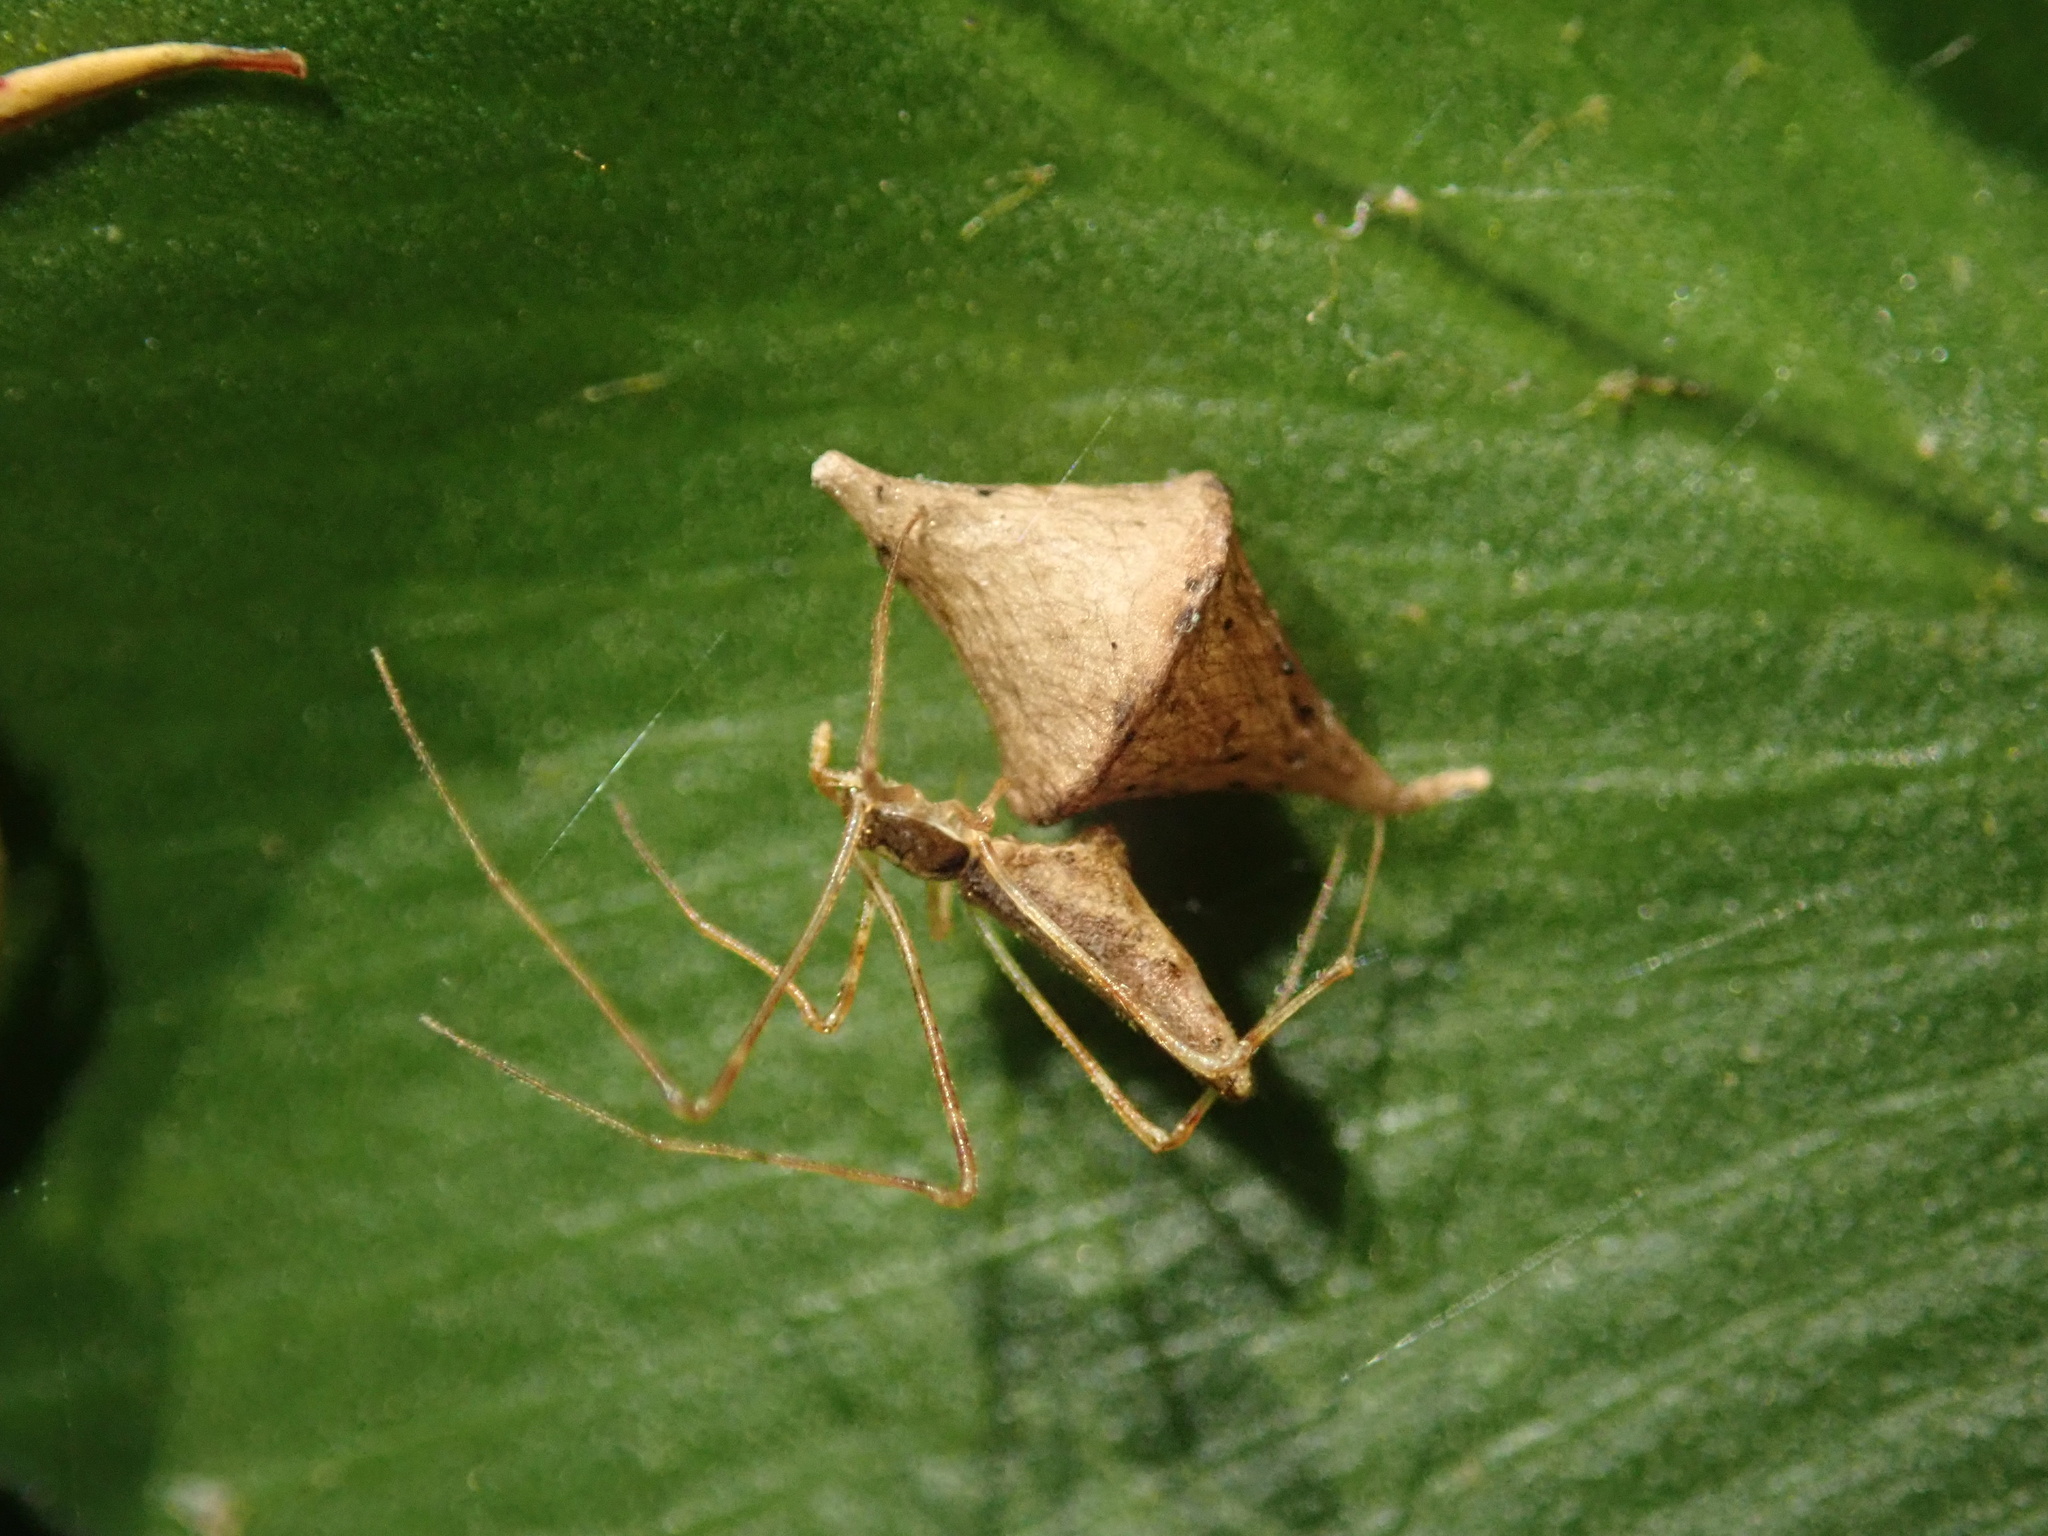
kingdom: Animalia
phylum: Arthropoda
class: Arachnida
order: Araneae
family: Theridiidae
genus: Rhomphaea
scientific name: Rhomphaea urquharti
